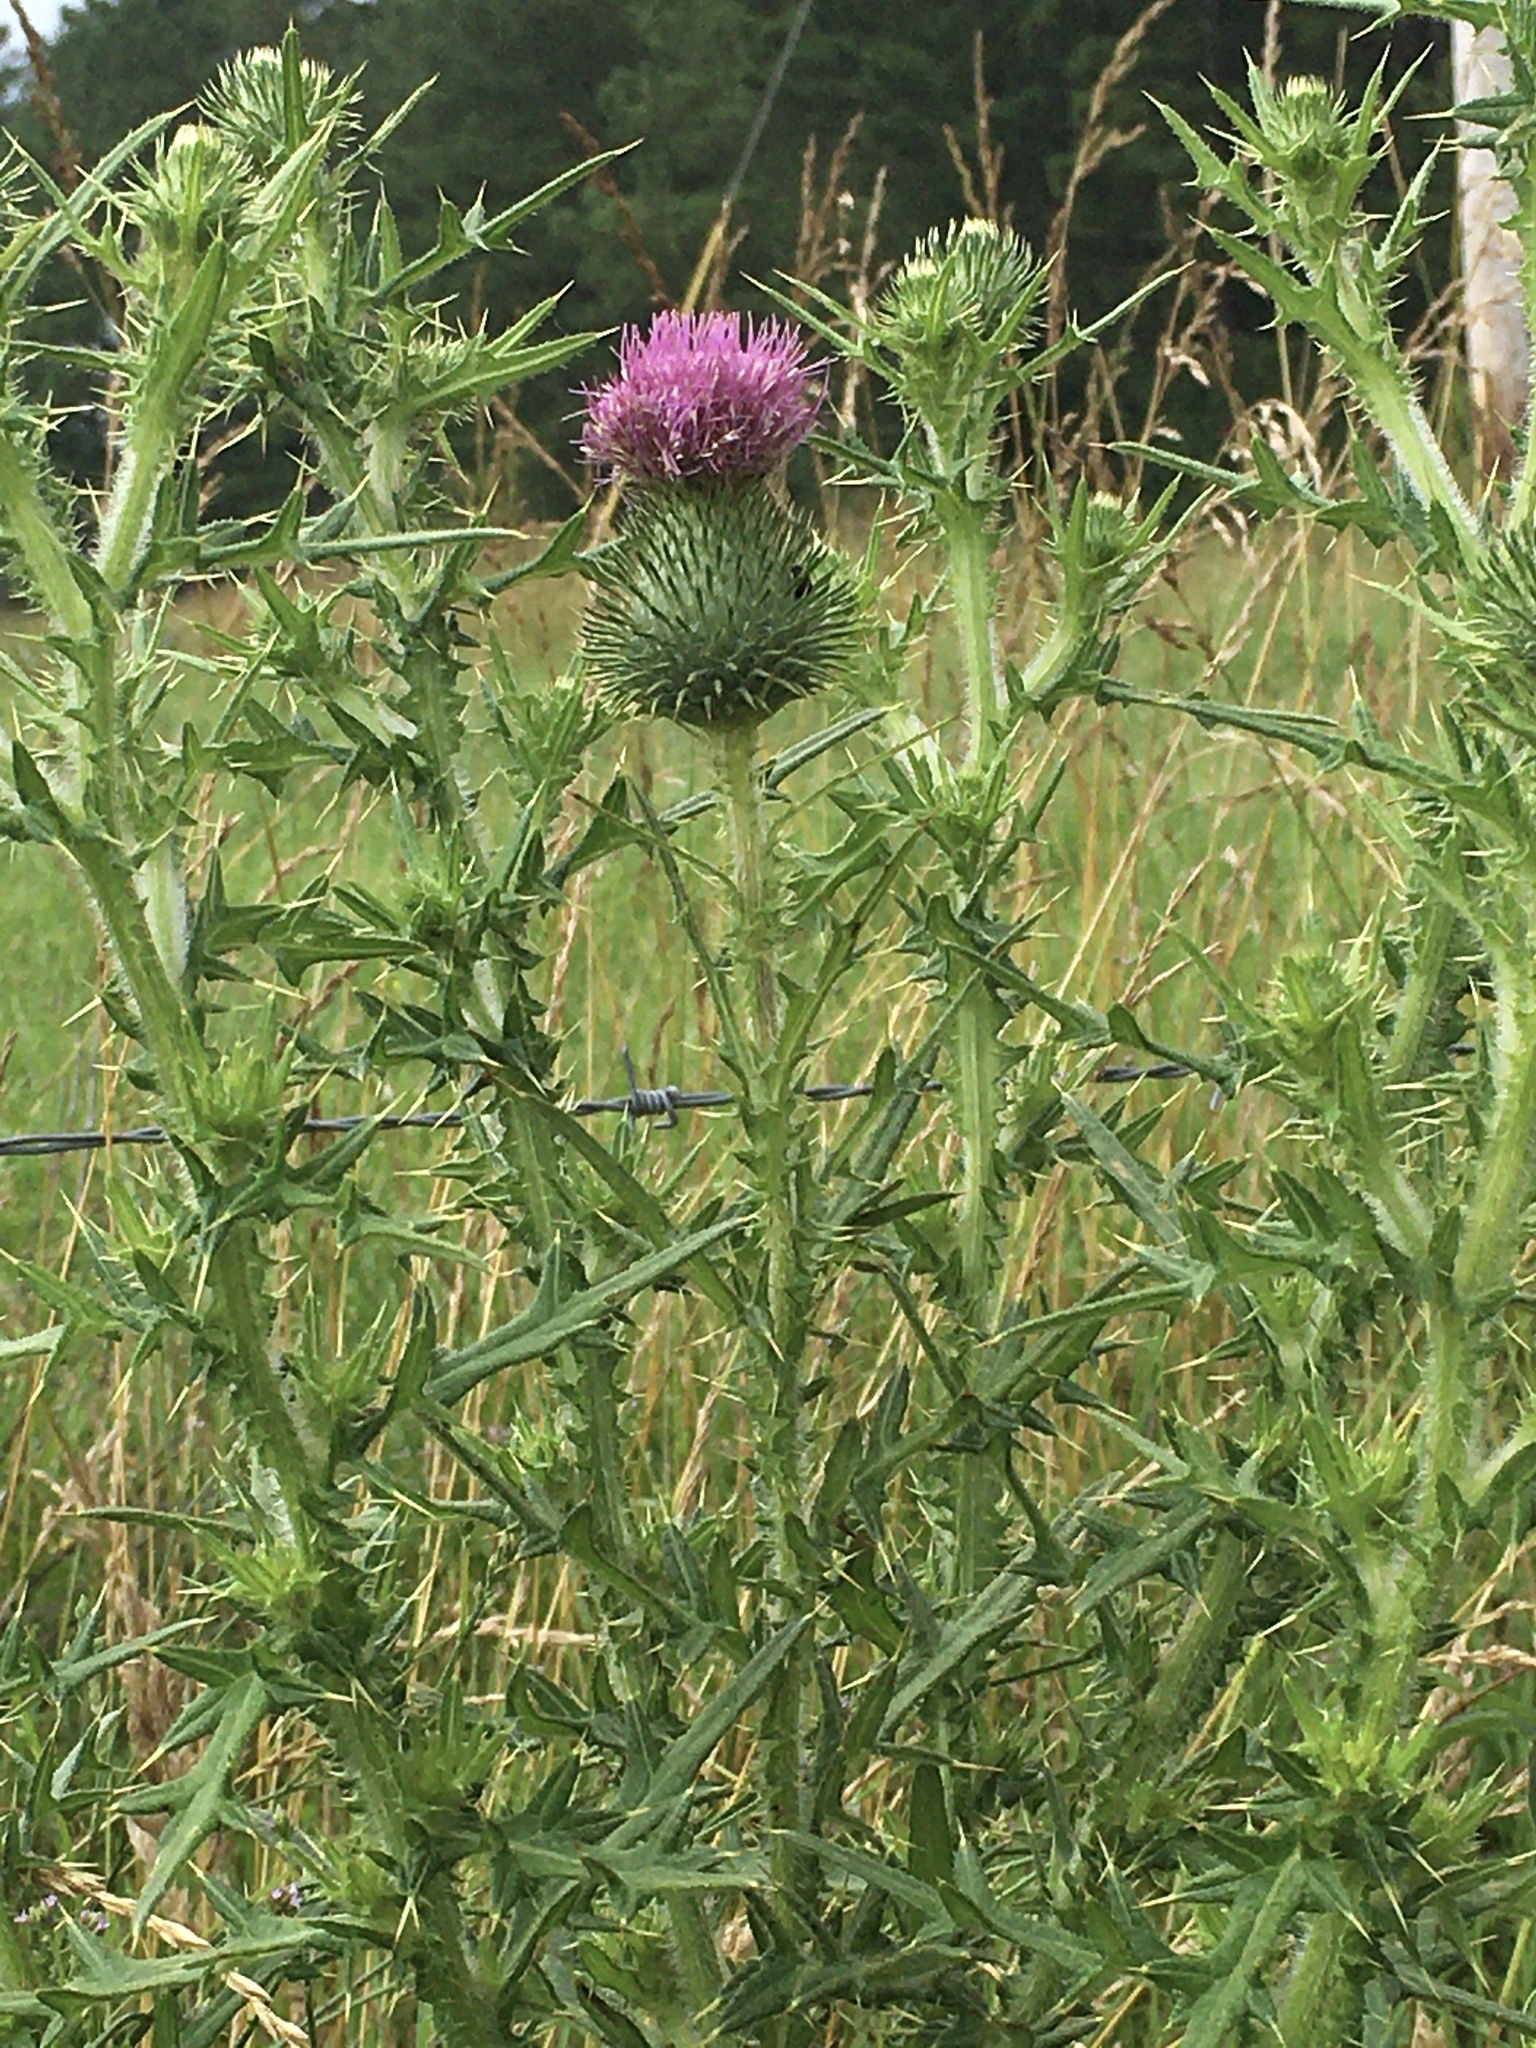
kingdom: Plantae
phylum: Tracheophyta
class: Magnoliopsida
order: Asterales
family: Asteraceae
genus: Cirsium
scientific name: Cirsium vulgare
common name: Bull thistle
